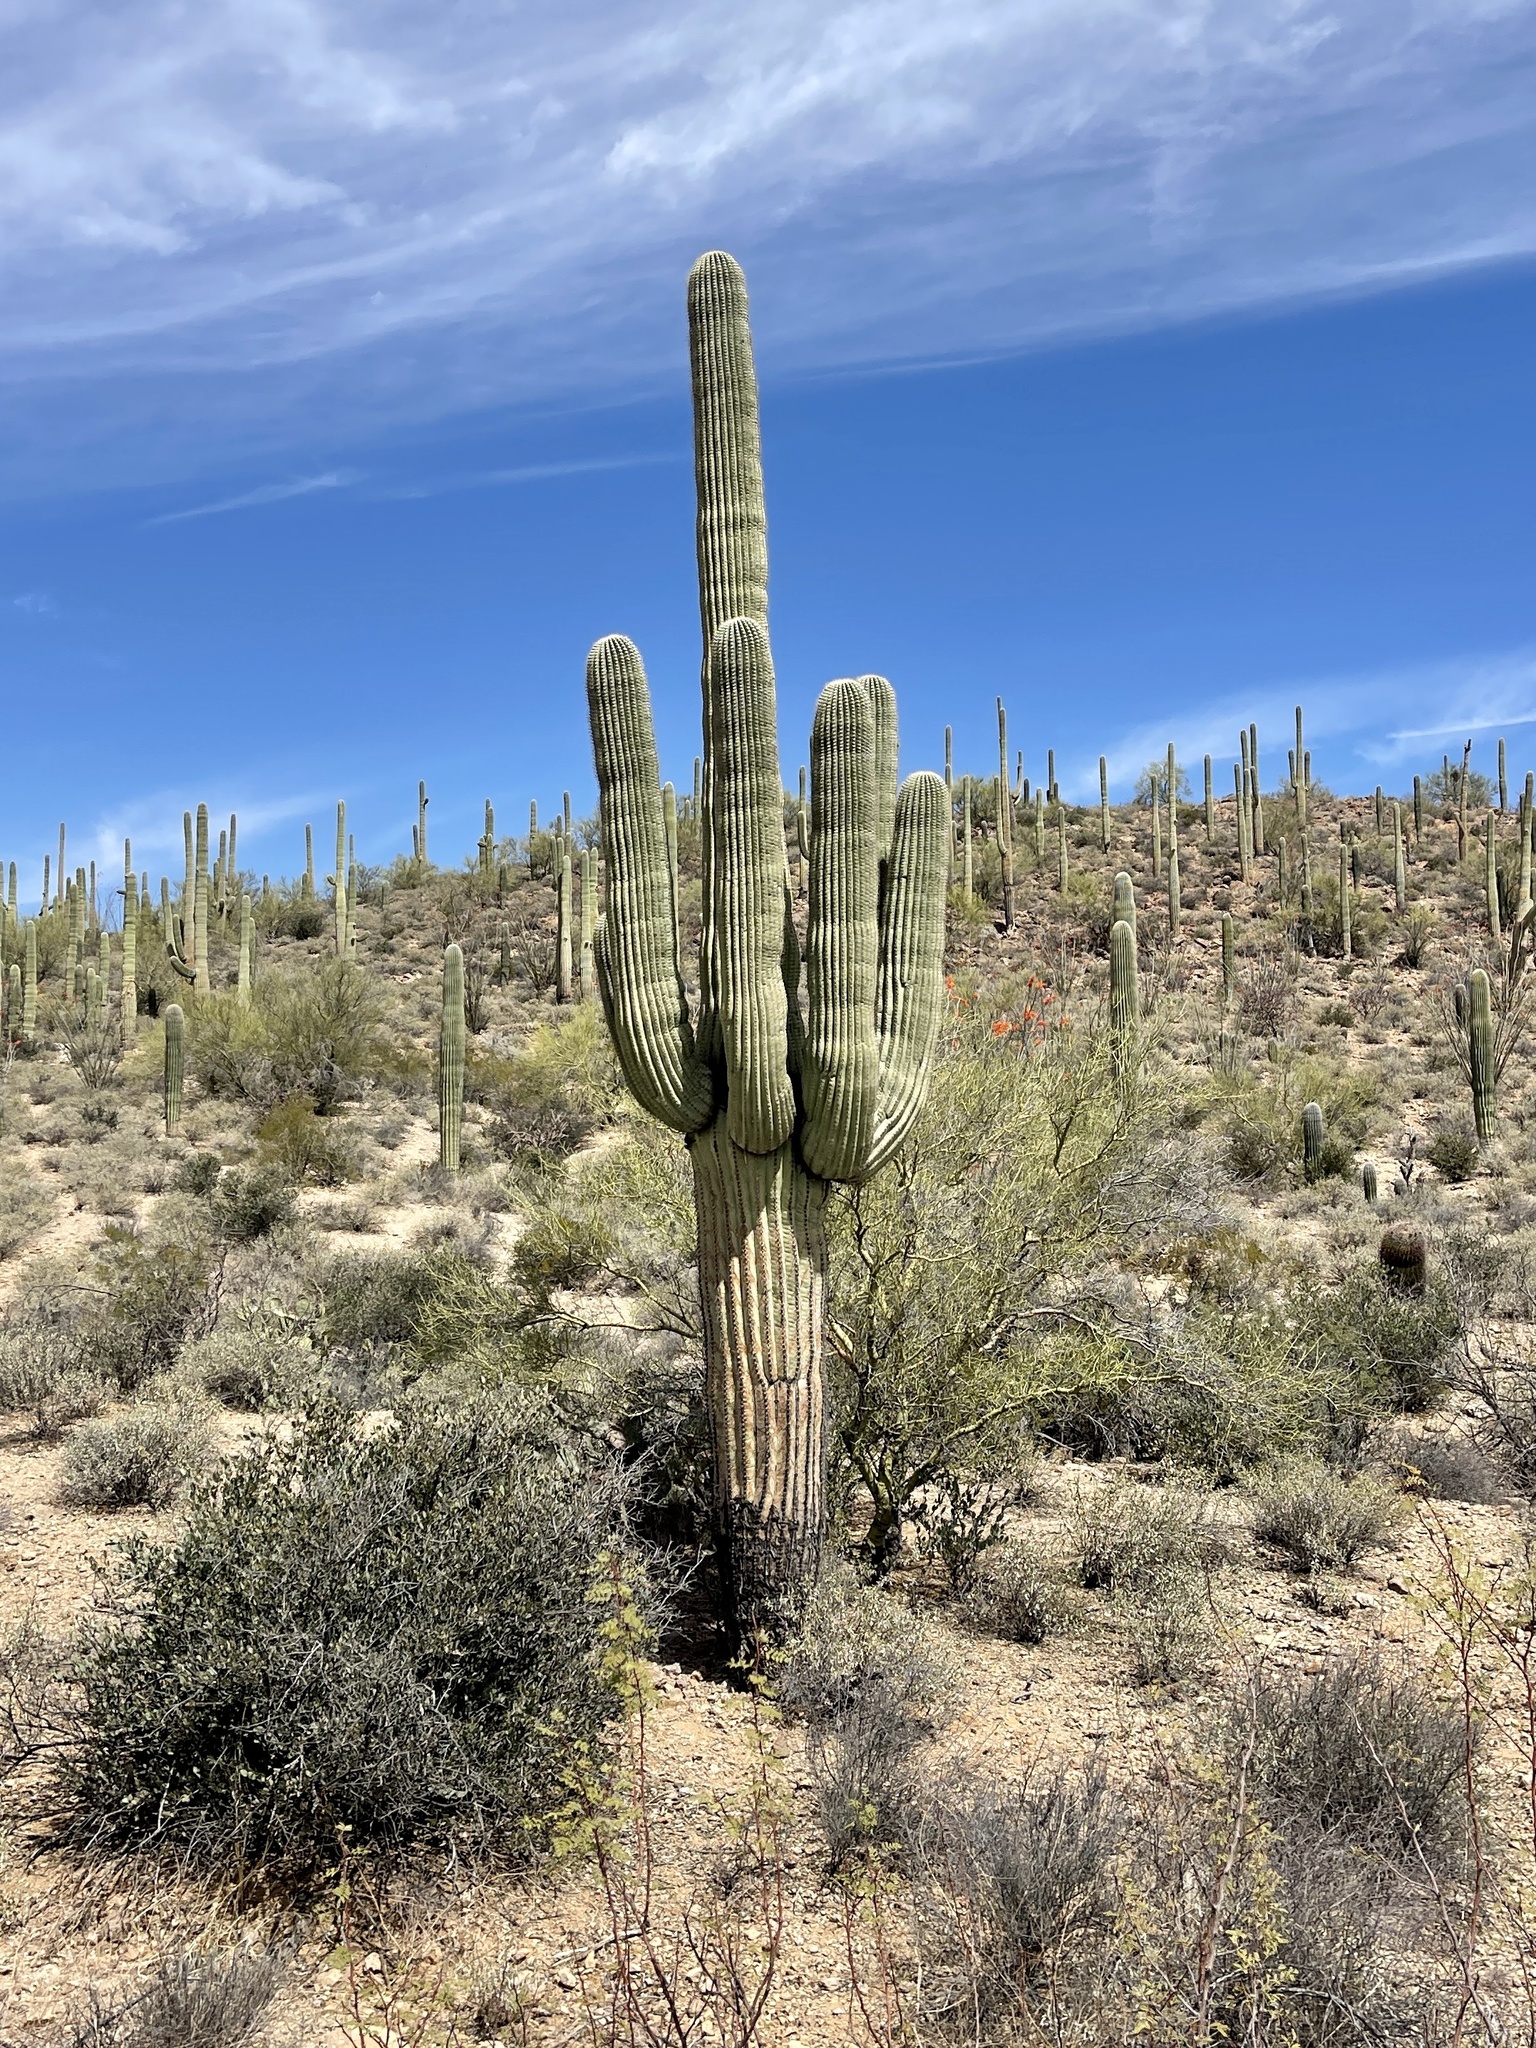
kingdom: Plantae
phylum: Tracheophyta
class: Magnoliopsida
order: Caryophyllales
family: Cactaceae
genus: Carnegiea
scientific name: Carnegiea gigantea
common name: Saguaro
